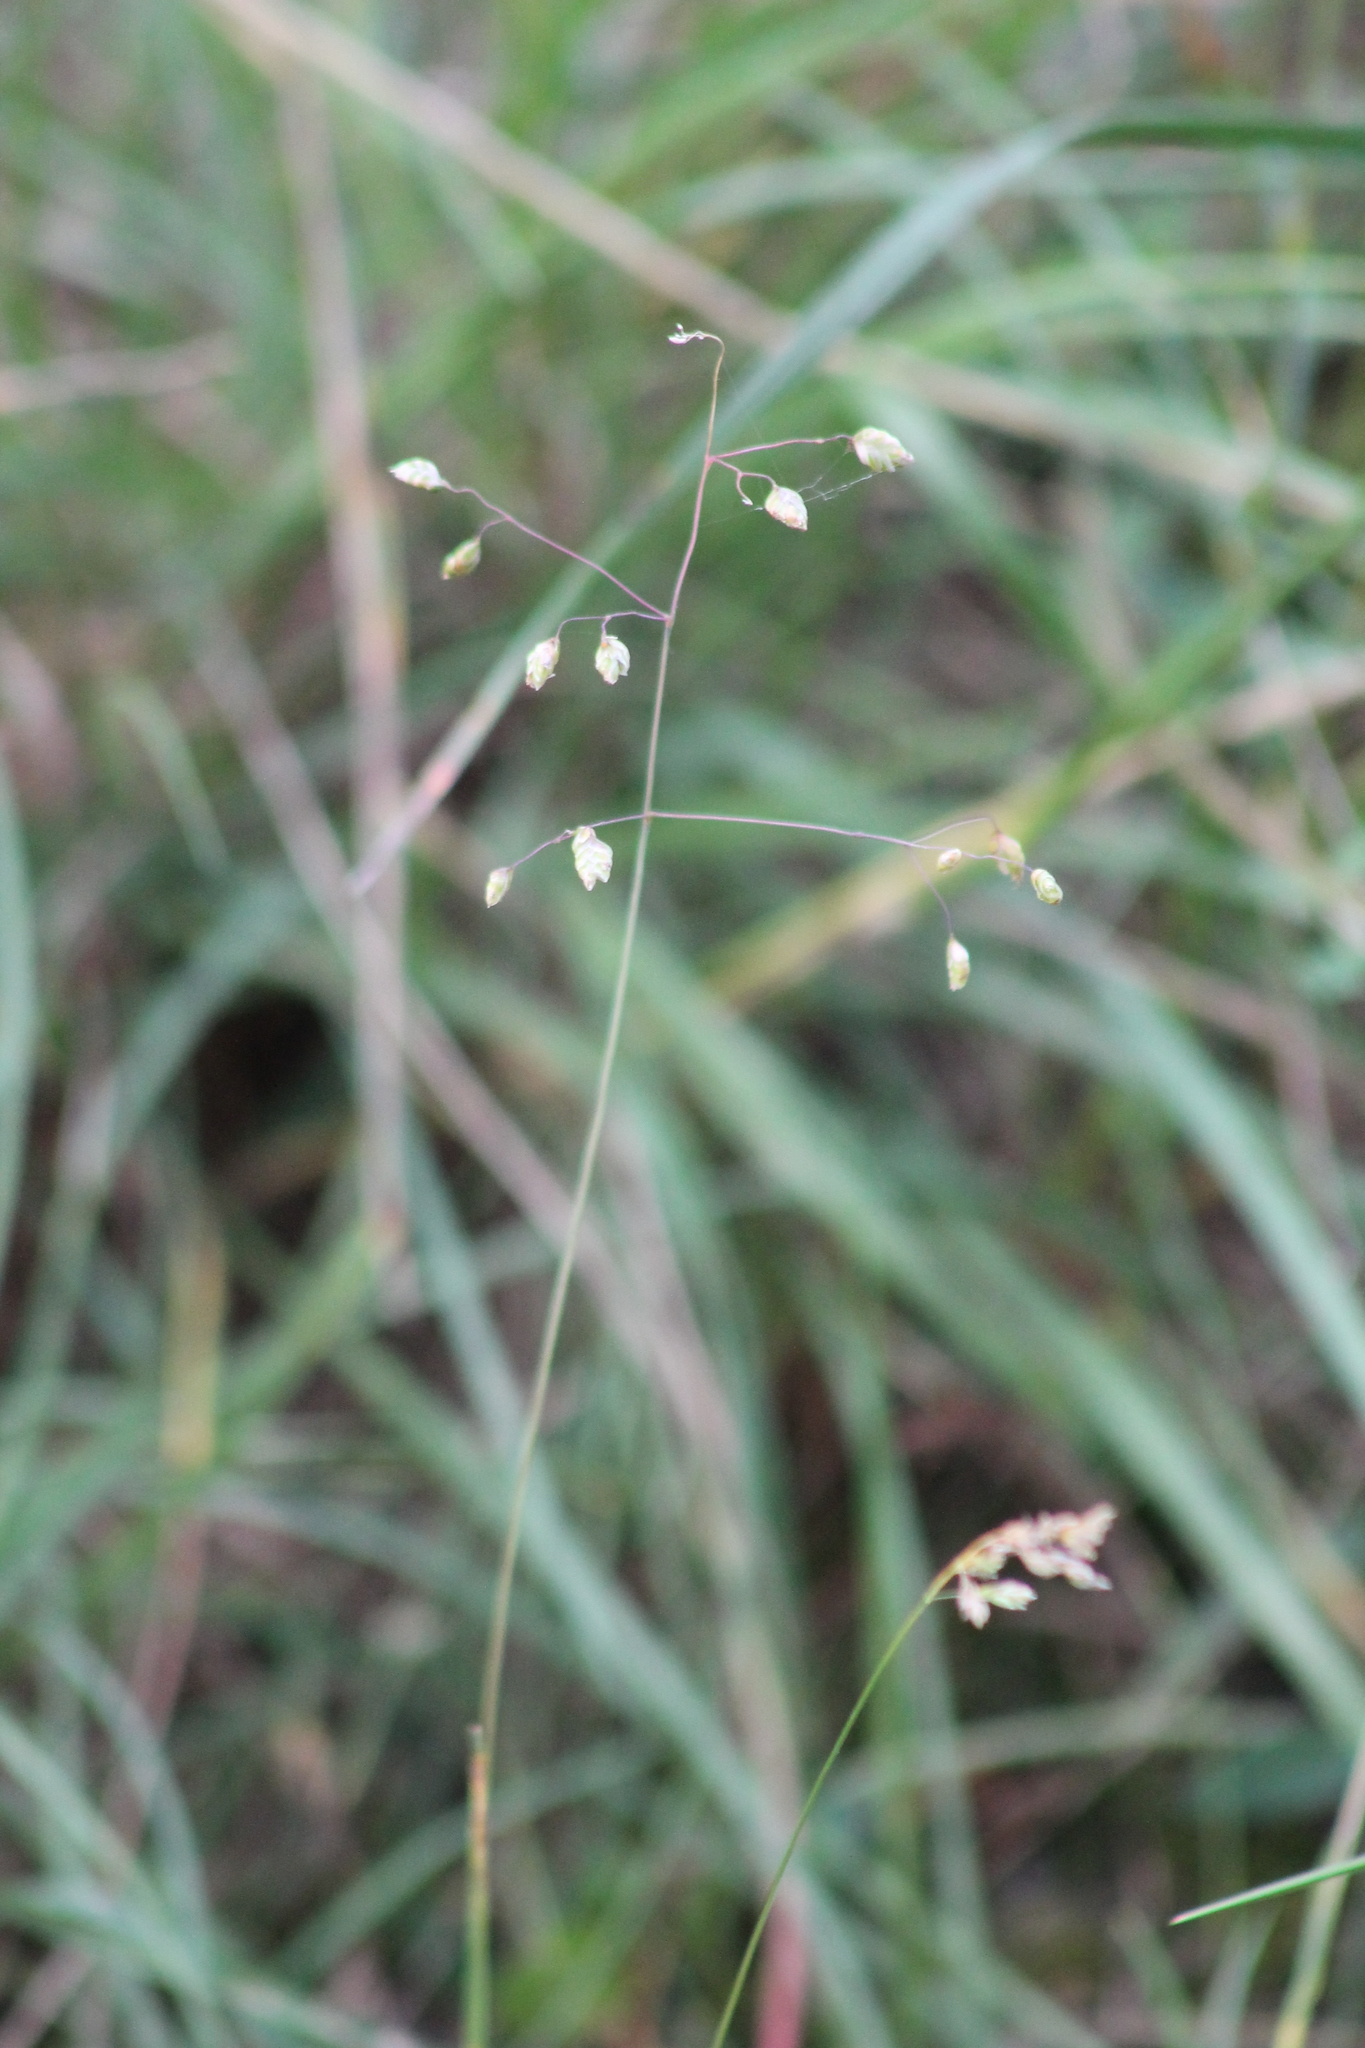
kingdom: Plantae
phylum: Tracheophyta
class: Liliopsida
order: Poales
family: Poaceae
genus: Briza
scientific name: Briza media
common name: Quaking grass
